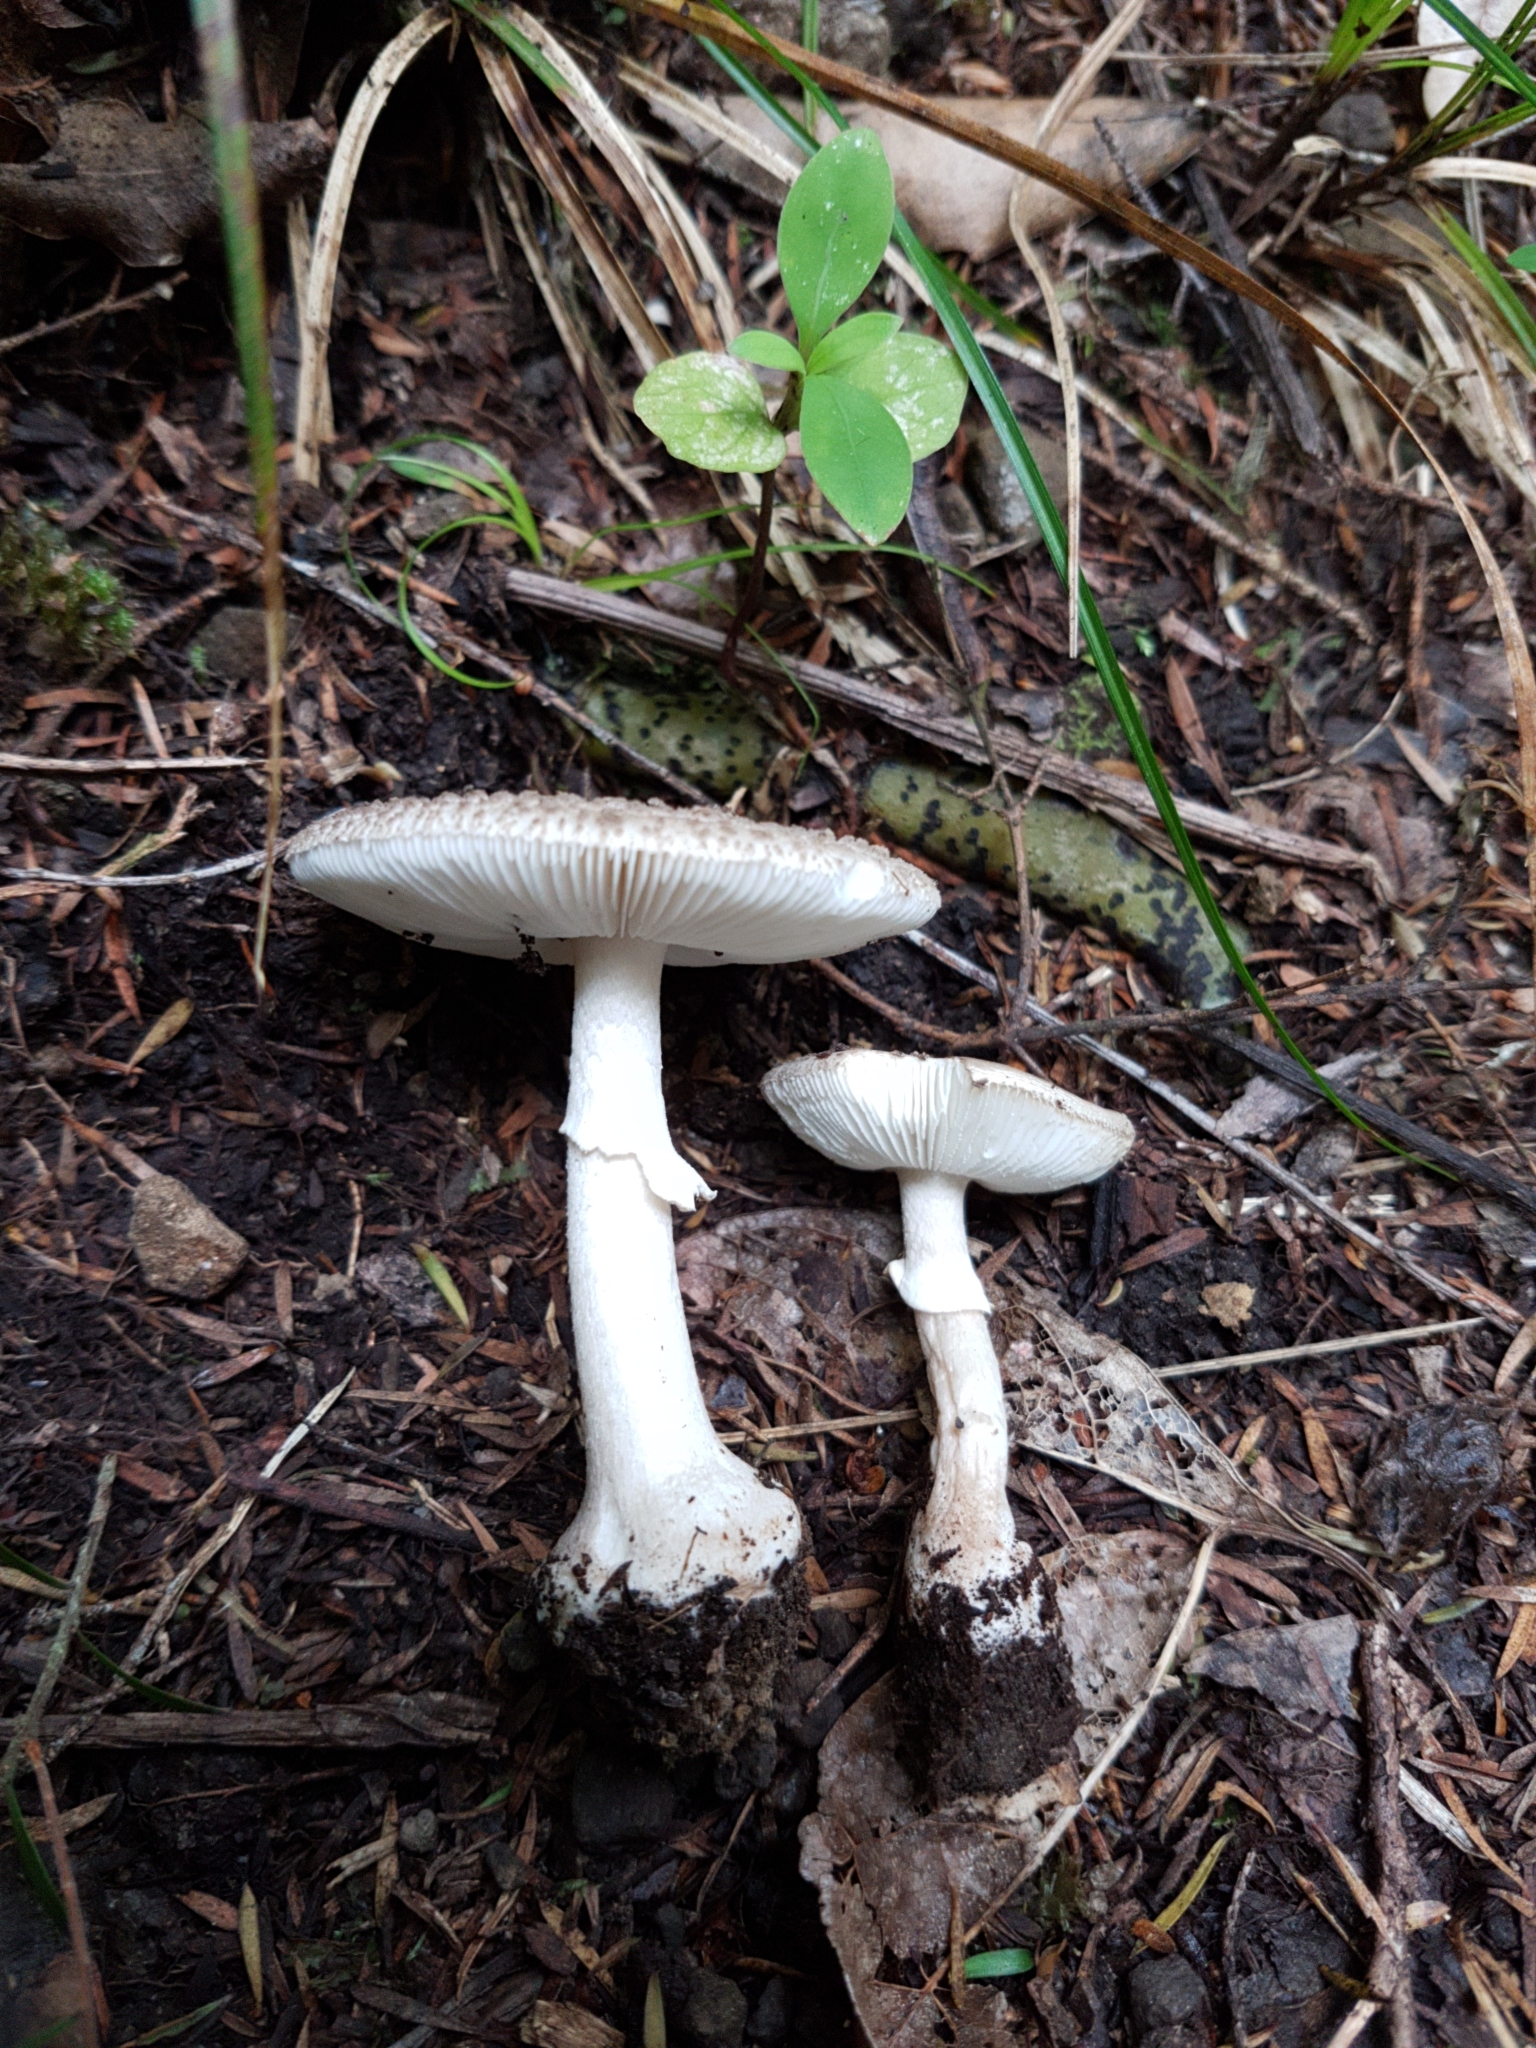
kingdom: Fungi
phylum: Basidiomycota
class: Agaricomycetes
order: Agaricales
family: Amanitaceae
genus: Amanita
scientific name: Amanita karea
